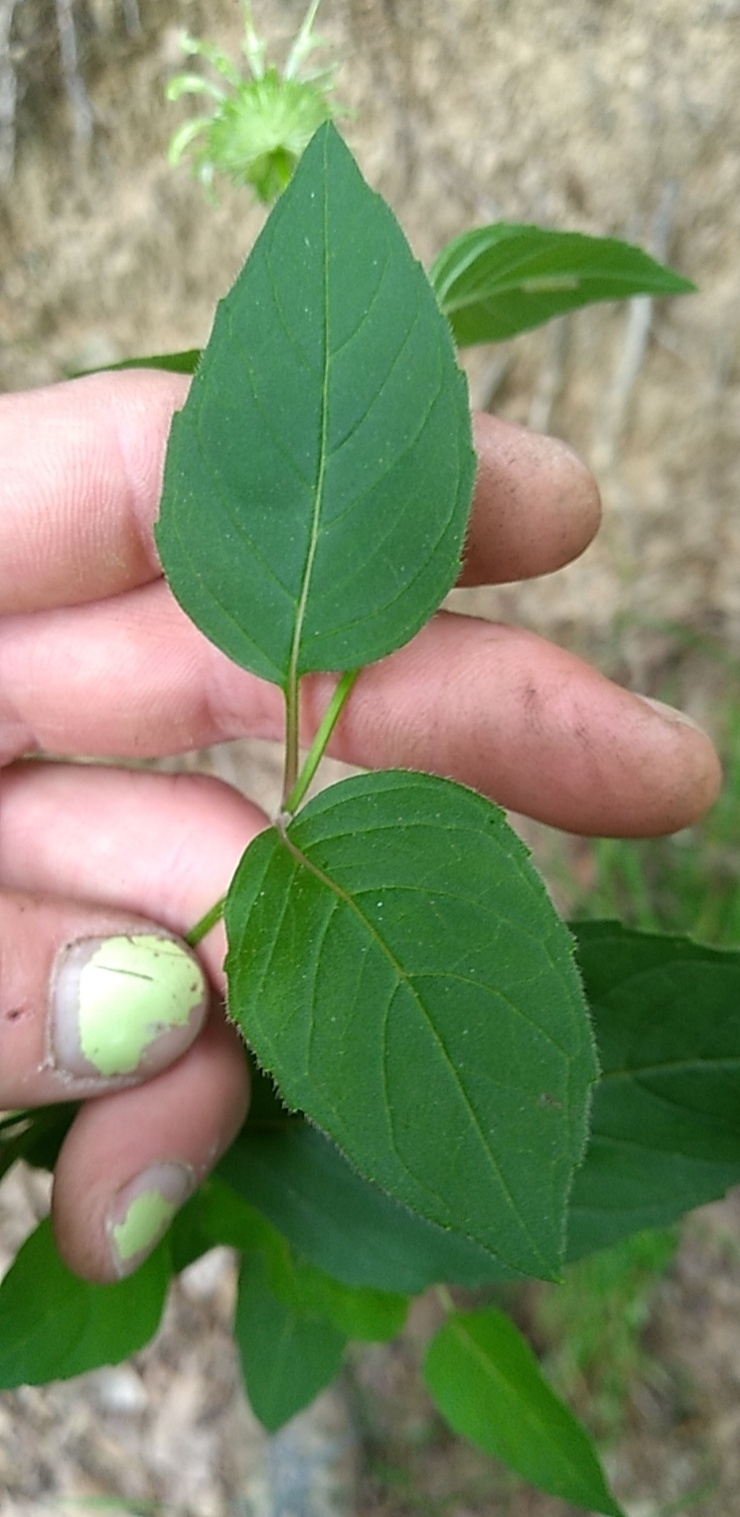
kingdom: Plantae
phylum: Tracheophyta
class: Magnoliopsida
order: Lamiales
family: Lamiaceae
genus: Monarda
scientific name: Monarda clinopodia
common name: Basil beebalm
